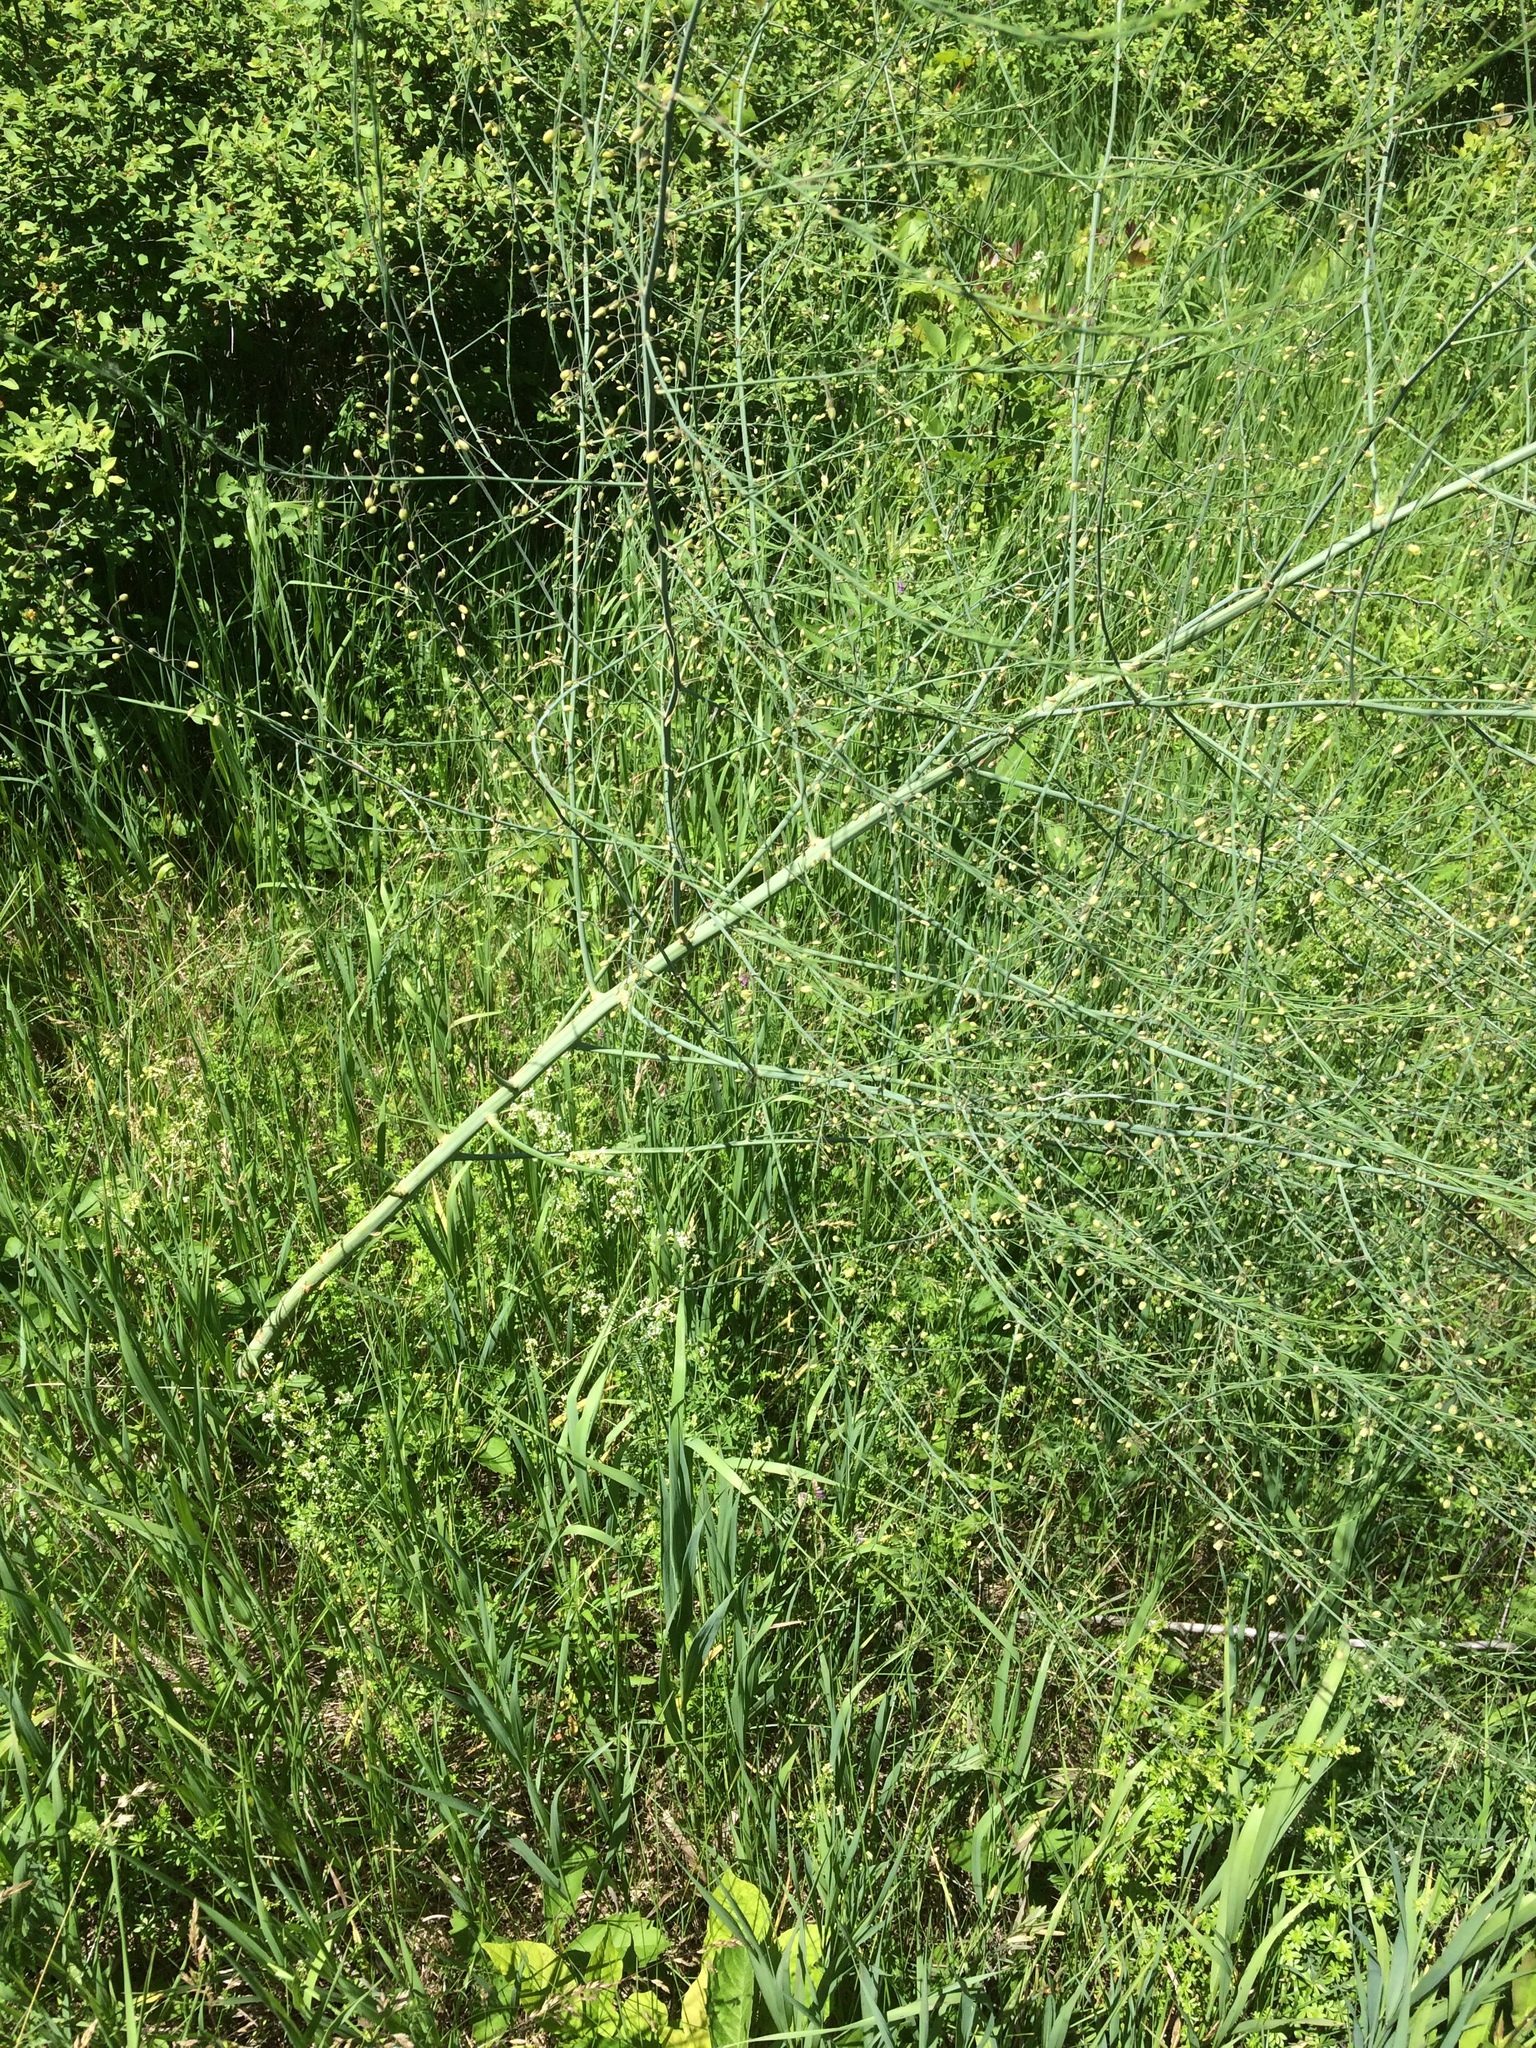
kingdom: Plantae
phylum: Tracheophyta
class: Liliopsida
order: Asparagales
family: Asparagaceae
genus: Asparagus
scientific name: Asparagus officinalis
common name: Garden asparagus
